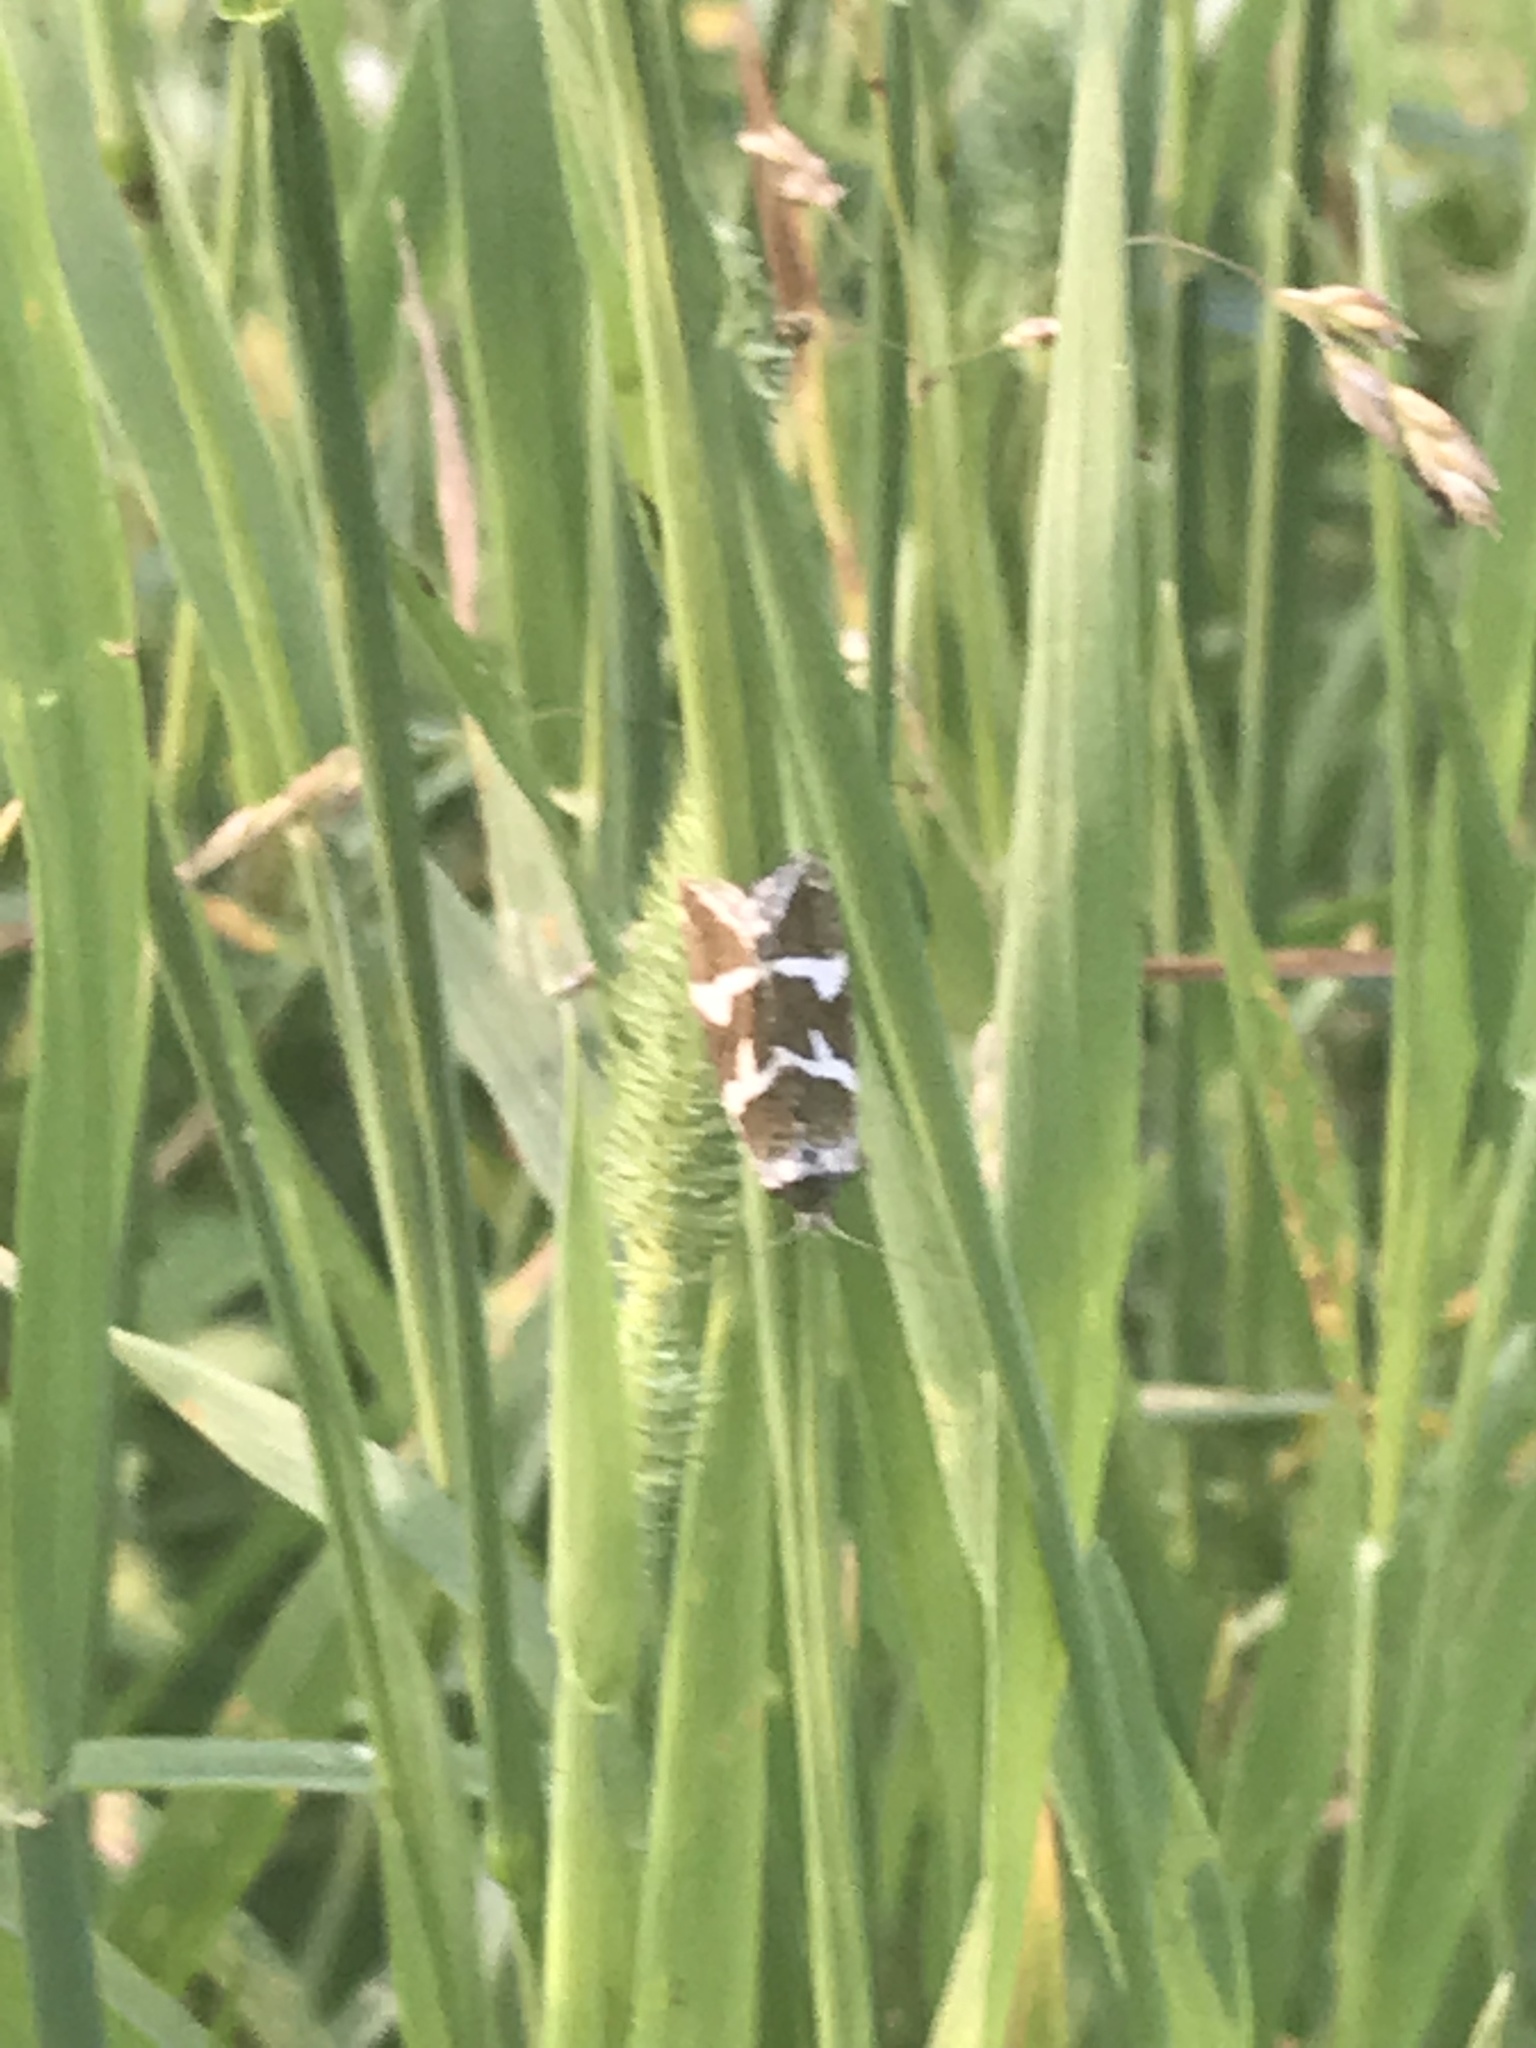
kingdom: Animalia
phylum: Arthropoda
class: Insecta
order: Lepidoptera
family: Noctuidae
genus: Deltote
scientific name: Deltote bankiana
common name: Silver barred
